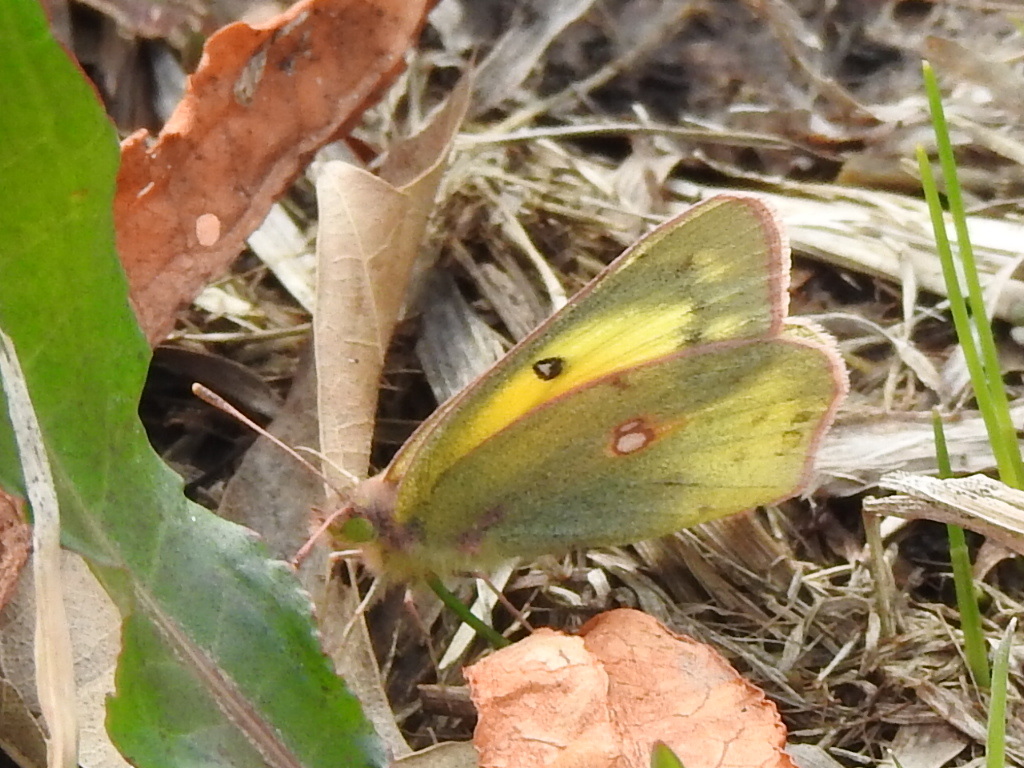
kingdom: Animalia
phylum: Arthropoda
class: Insecta
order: Lepidoptera
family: Pieridae
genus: Colias
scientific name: Colias eurytheme
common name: Alfalfa butterfly
